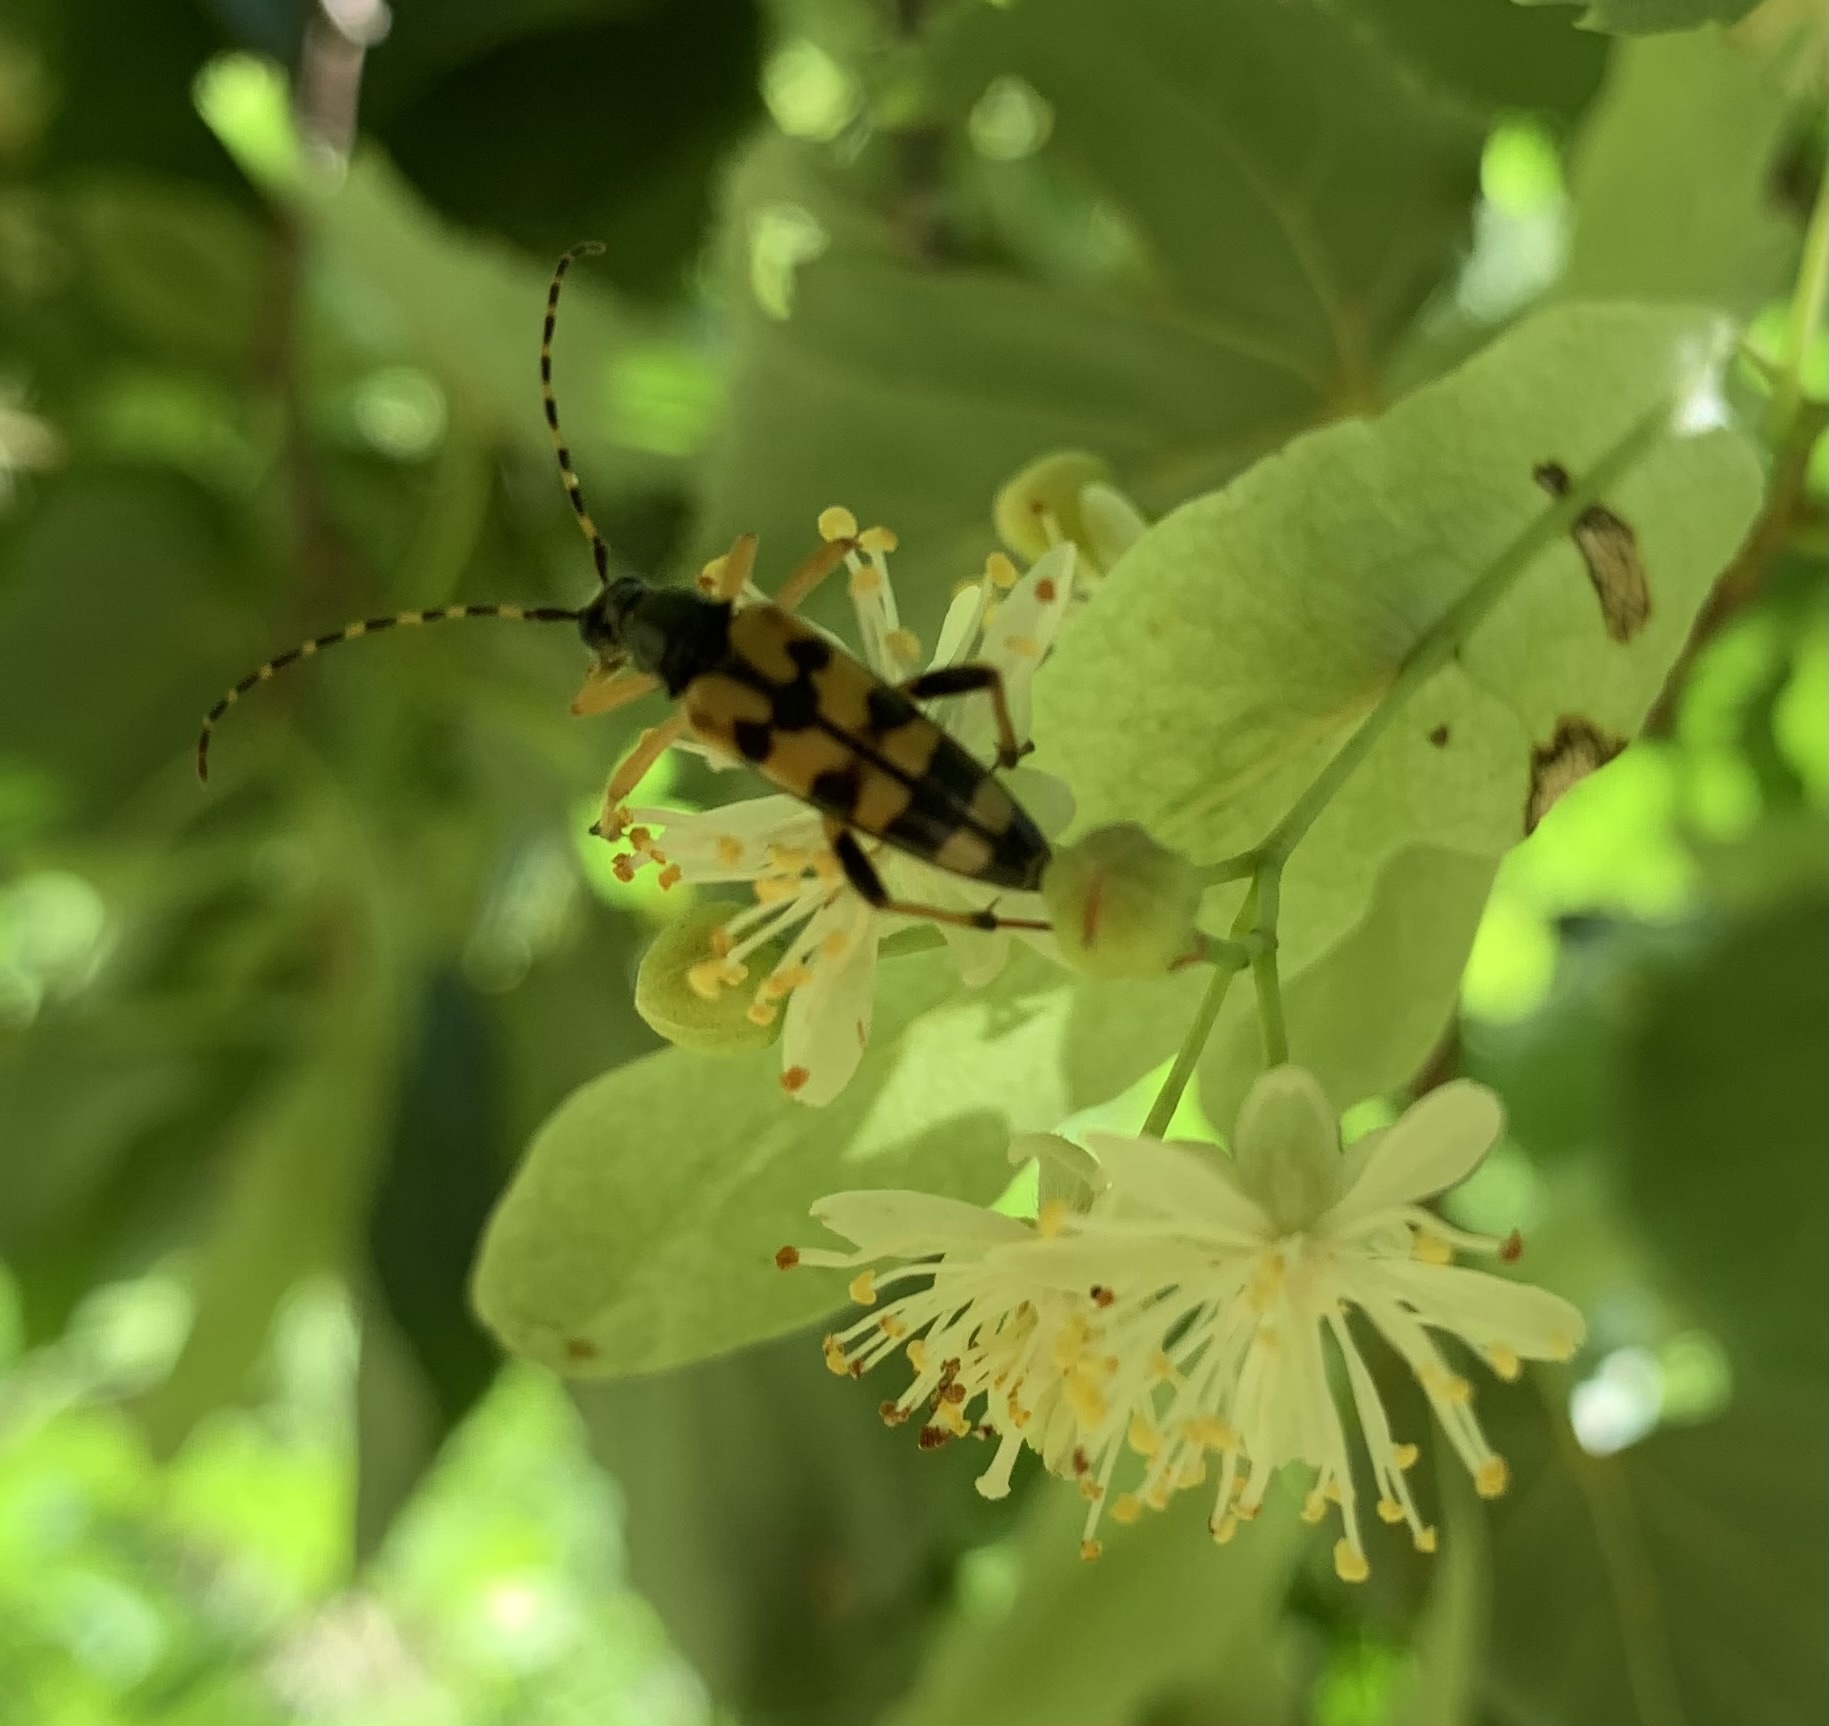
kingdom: Animalia
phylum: Arthropoda
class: Insecta
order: Coleoptera
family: Cerambycidae
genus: Rutpela
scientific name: Rutpela maculata
